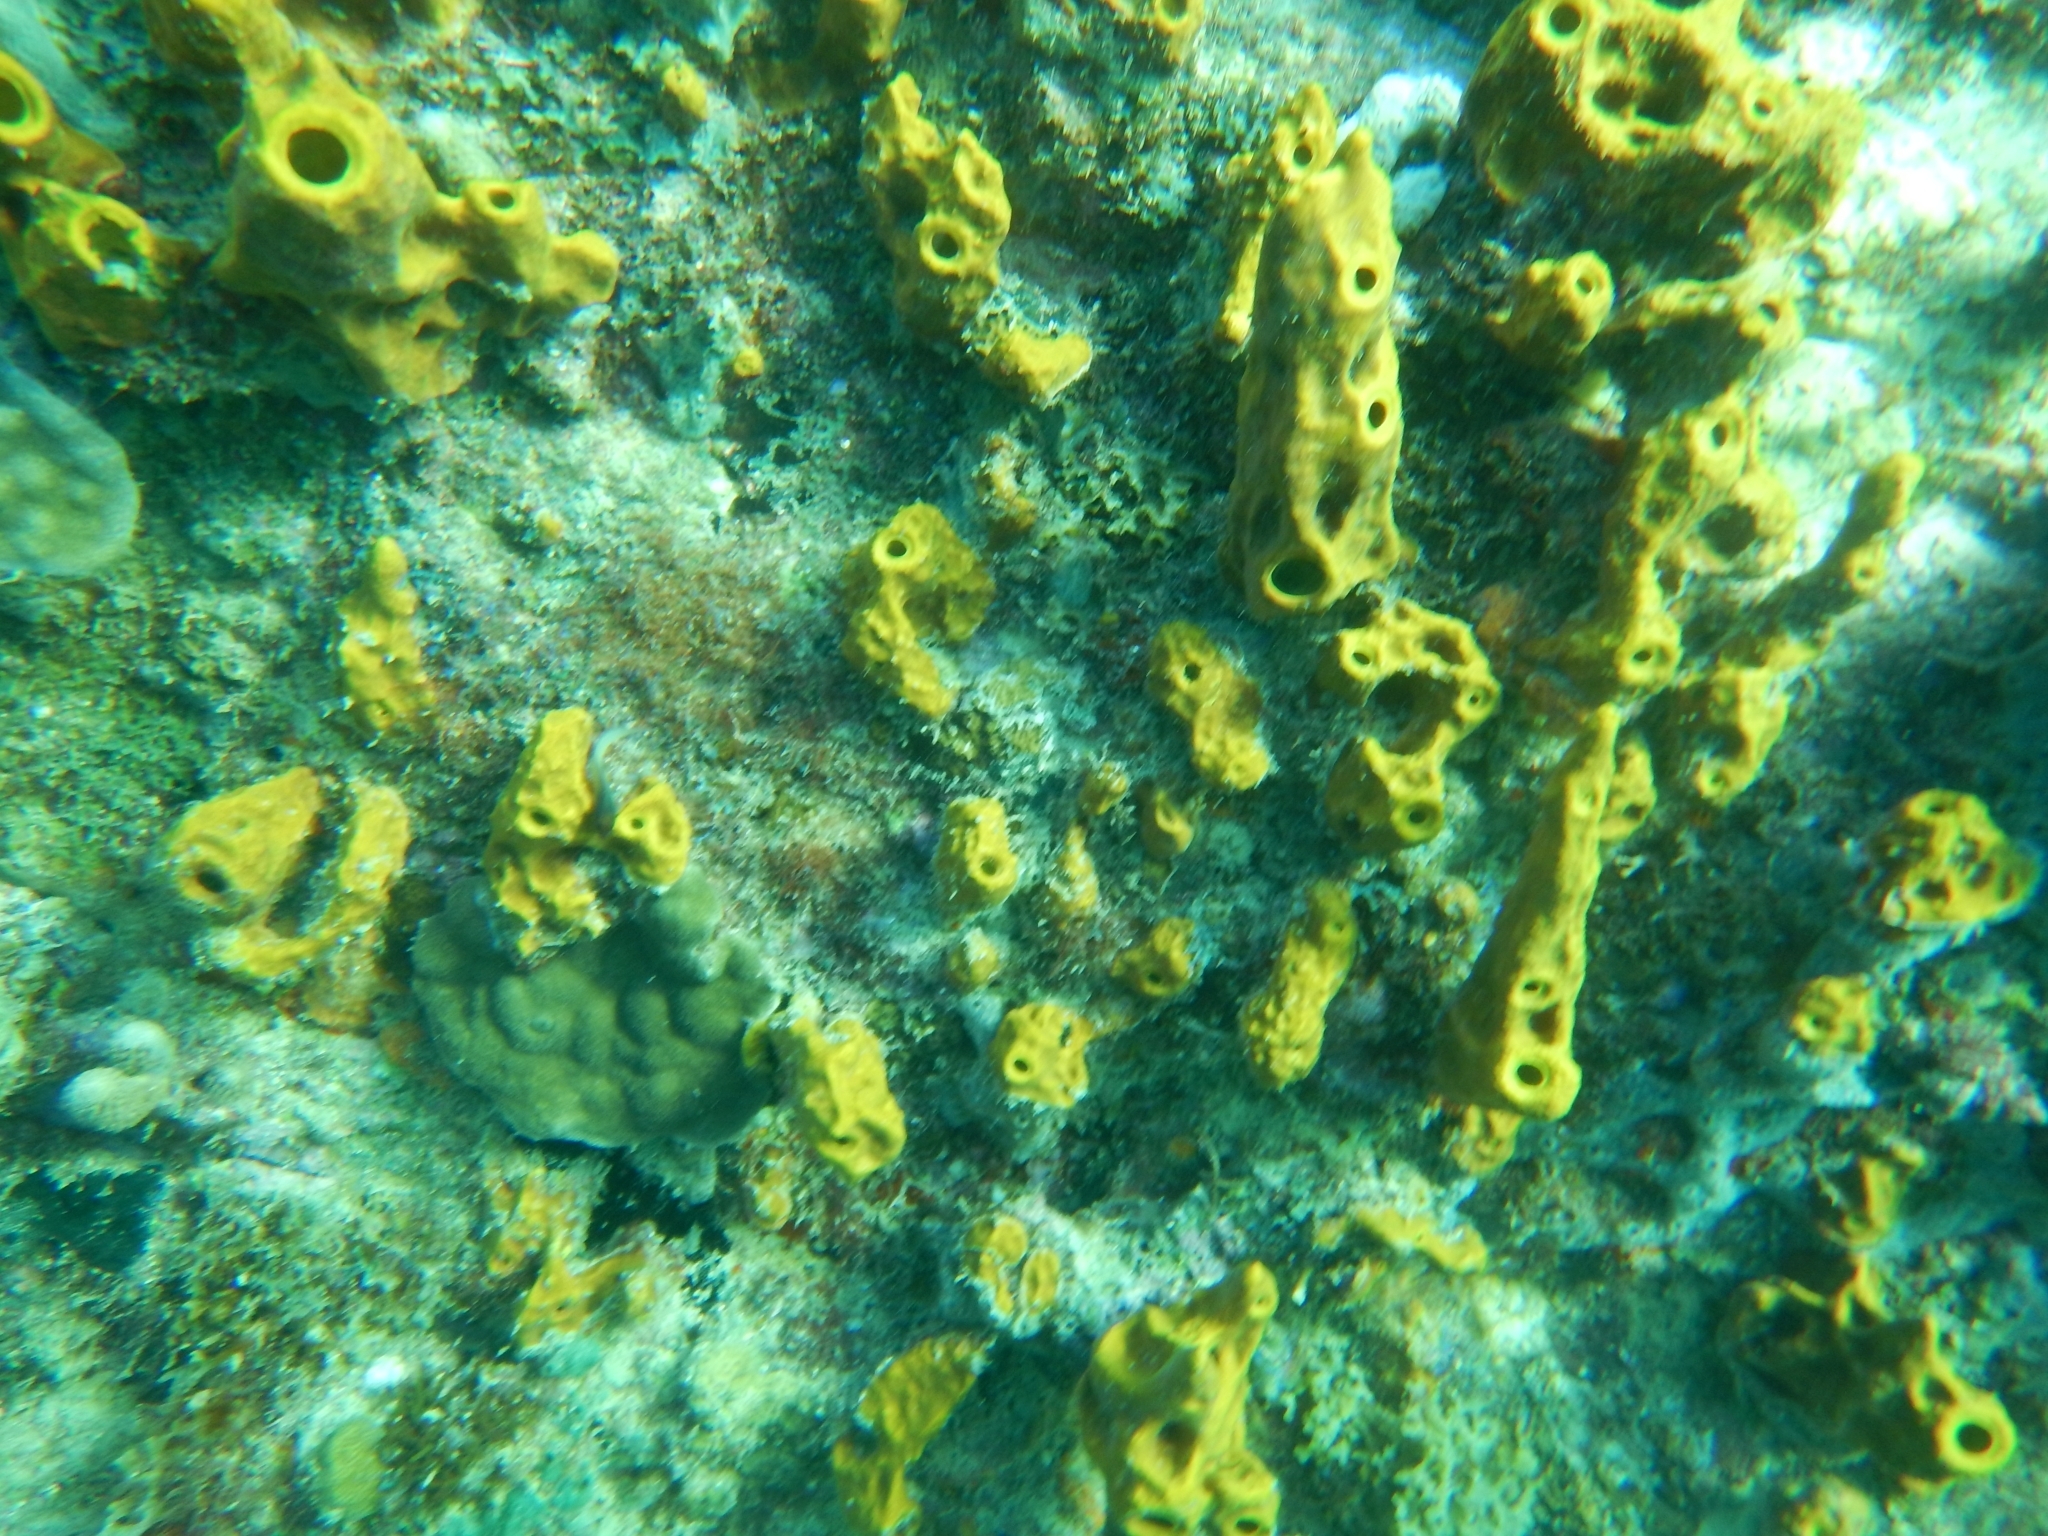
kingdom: Animalia
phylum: Porifera
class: Demospongiae
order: Verongiida
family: Aplysinidae
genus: Aplysina
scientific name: Aplysina fistularis
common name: Candle sponge
